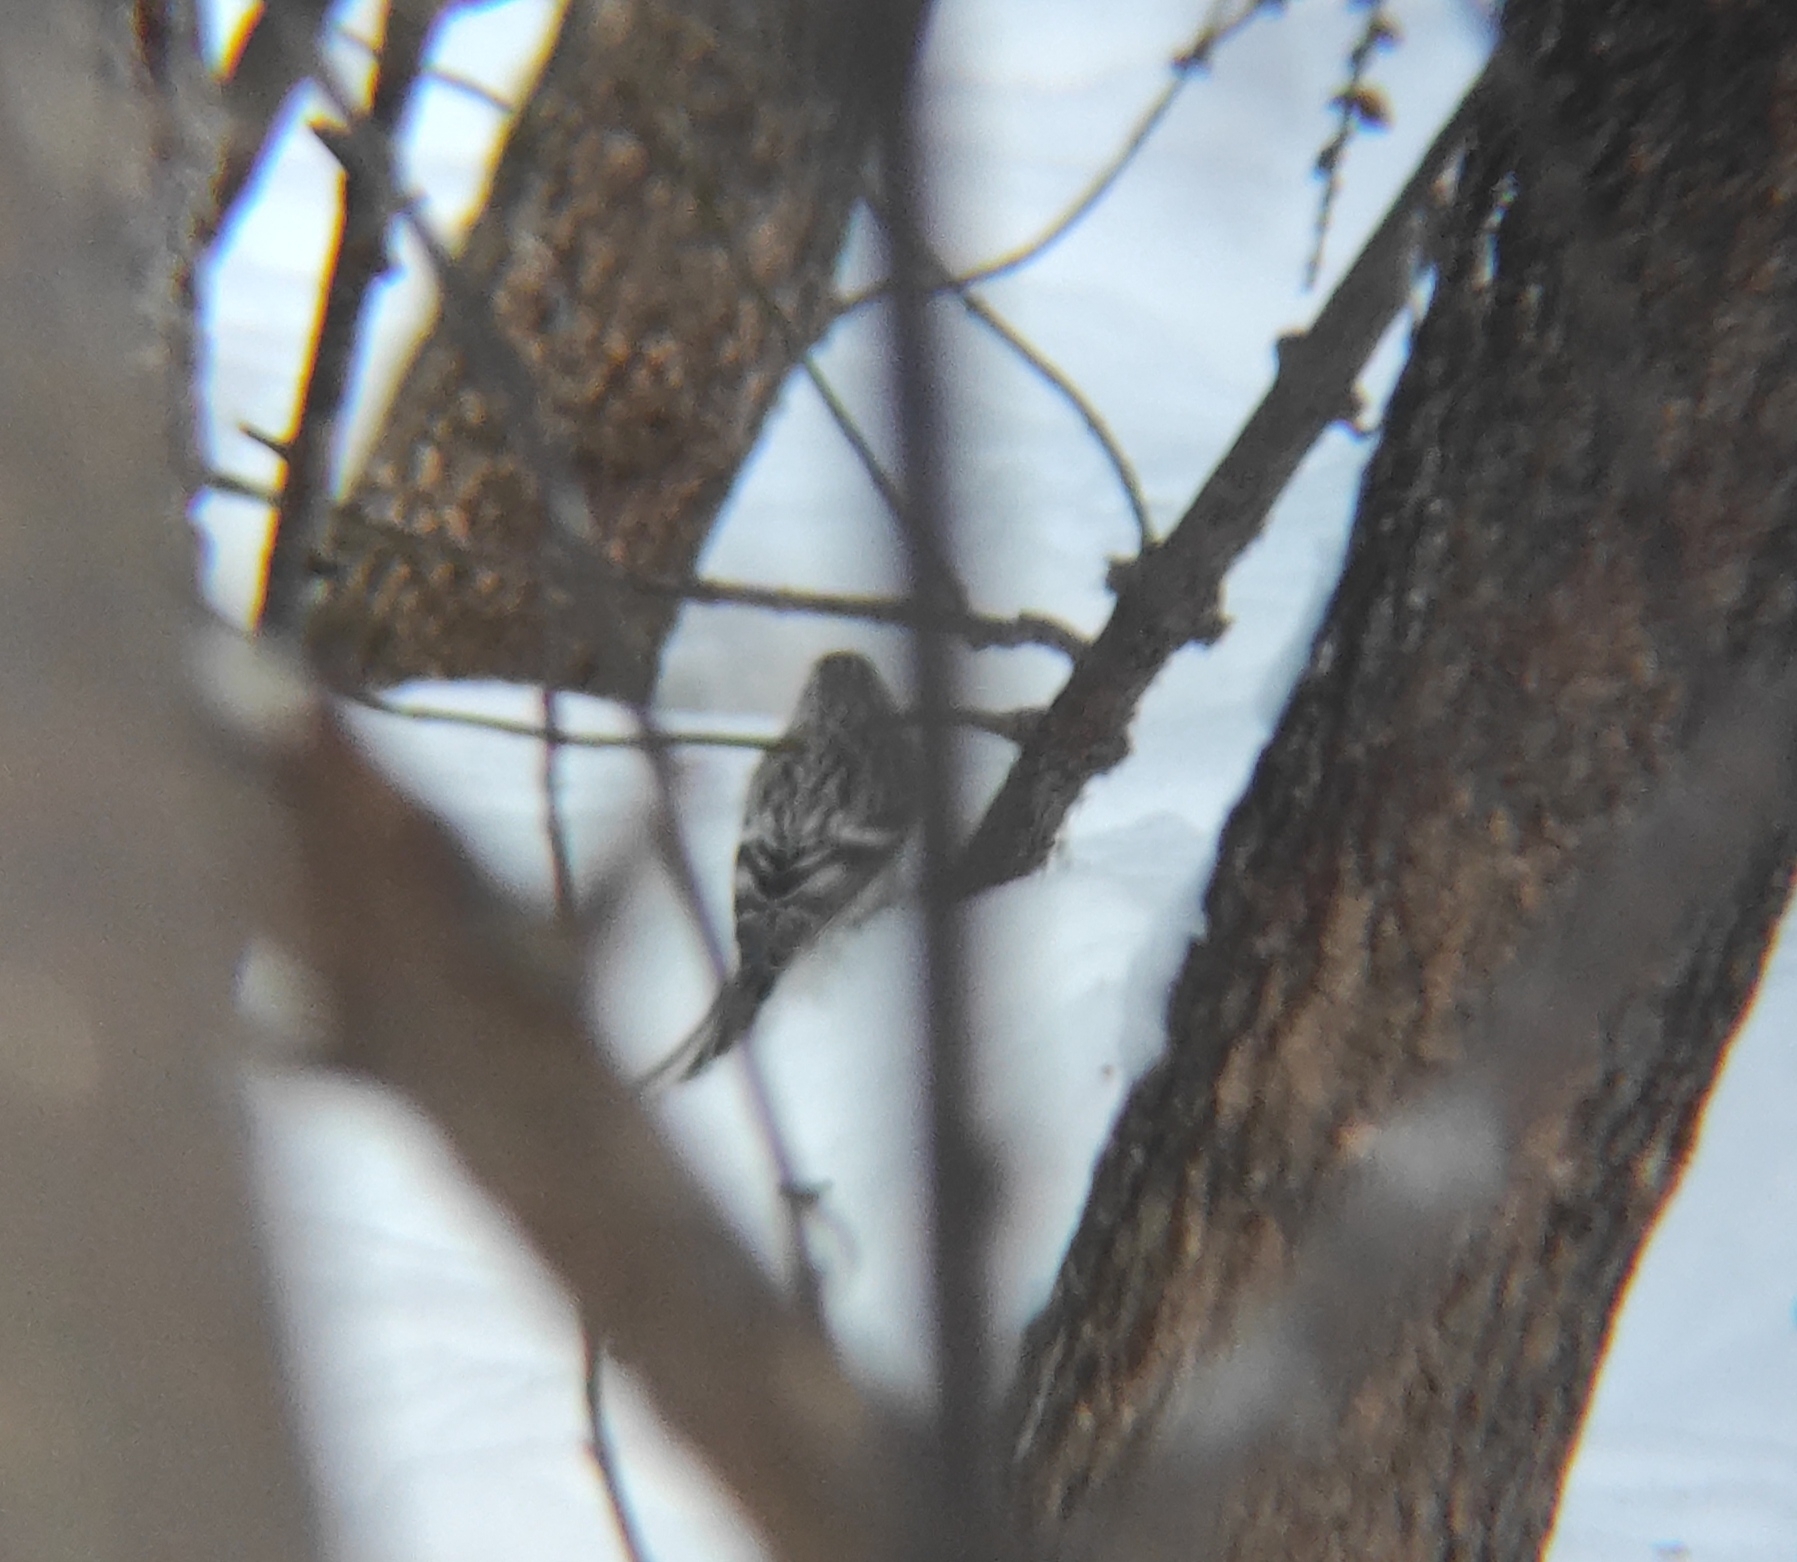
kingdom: Animalia
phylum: Chordata
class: Aves
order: Passeriformes
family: Fringillidae
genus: Acanthis
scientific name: Acanthis flammea
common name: Common redpoll
